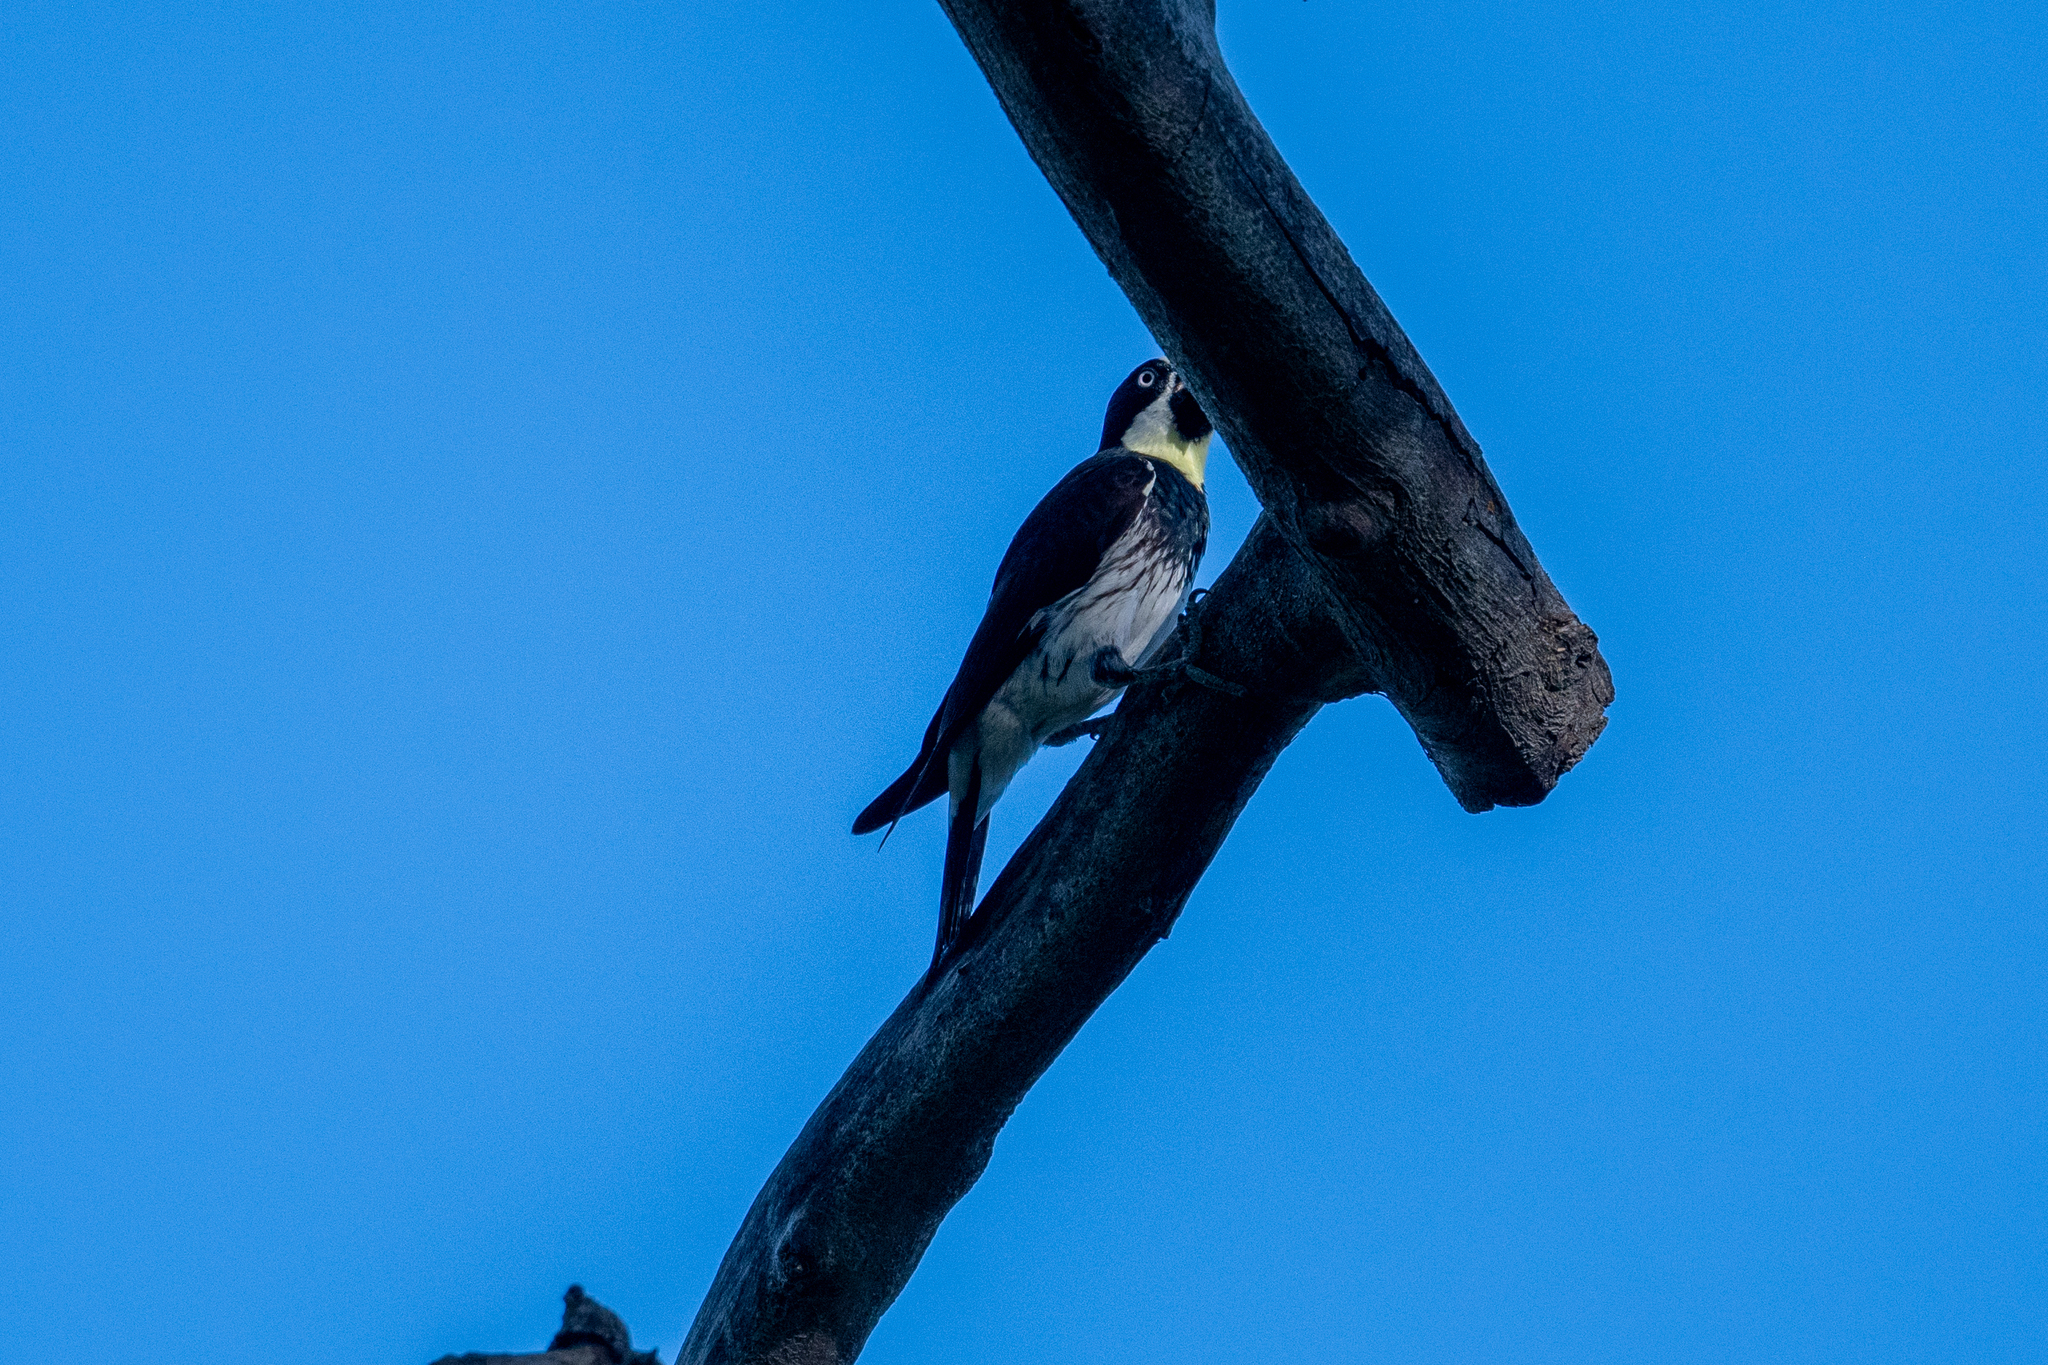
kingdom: Animalia
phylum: Chordata
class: Aves
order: Piciformes
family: Picidae
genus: Melanerpes
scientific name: Melanerpes formicivorus
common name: Acorn woodpecker
